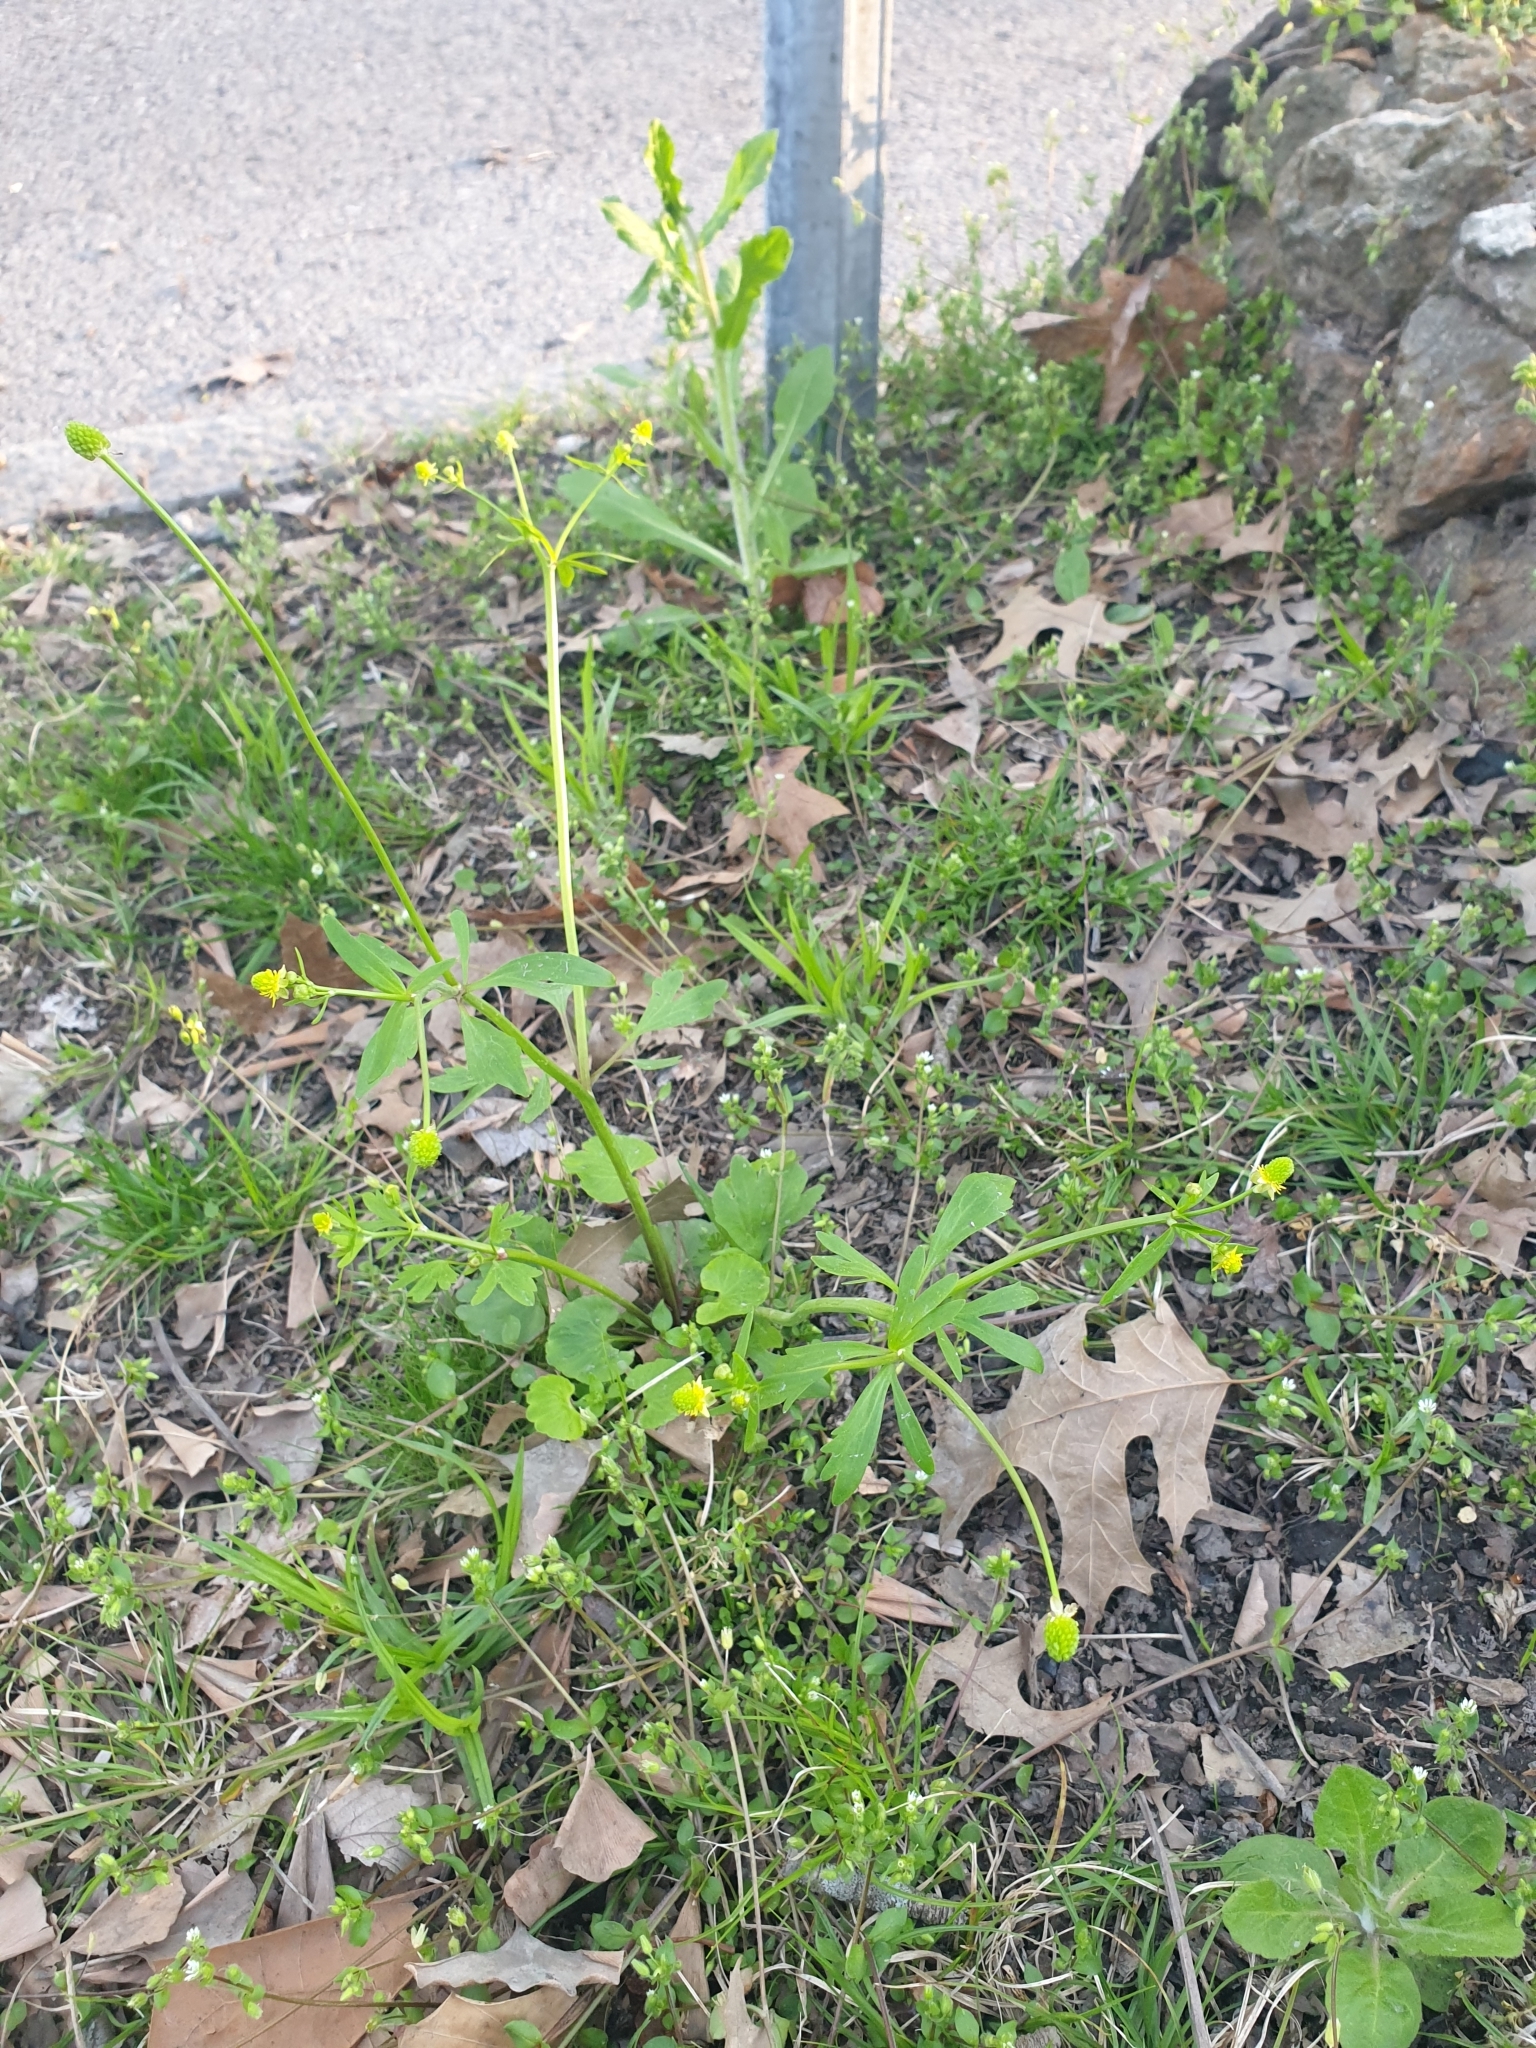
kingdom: Plantae
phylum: Tracheophyta
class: Magnoliopsida
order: Ranunculales
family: Ranunculaceae
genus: Ranunculus
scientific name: Ranunculus abortivus
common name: Early wood buttercup
